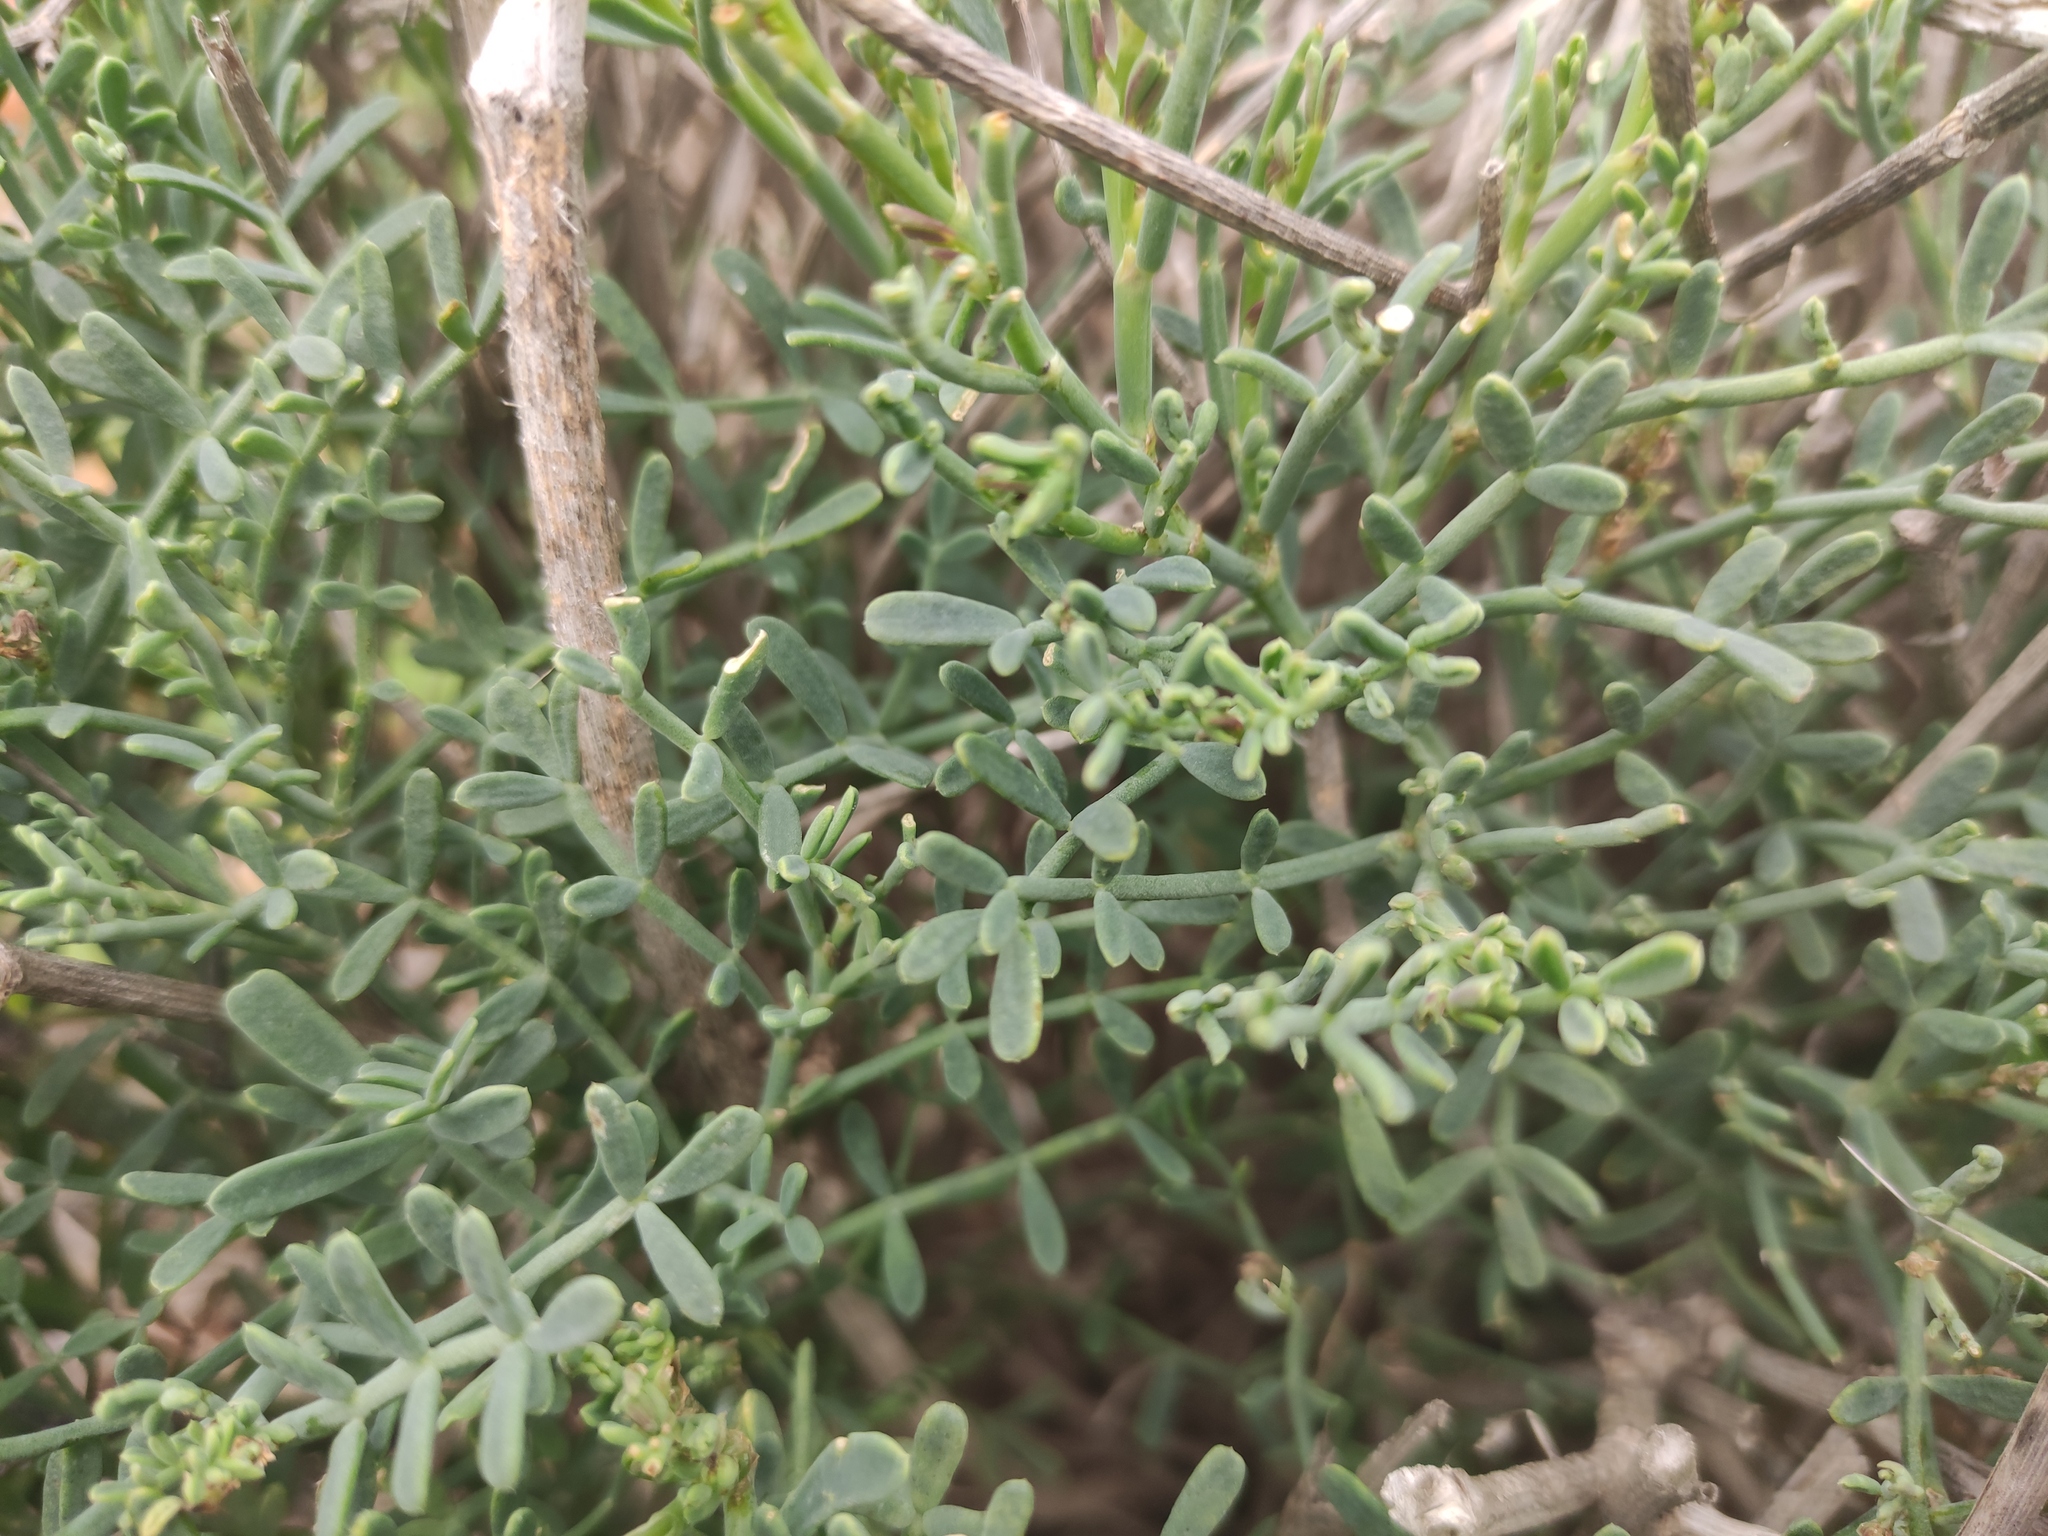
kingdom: Plantae
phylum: Tracheophyta
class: Magnoliopsida
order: Fabales
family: Fabaceae
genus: Coronilla
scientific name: Coronilla juncea
